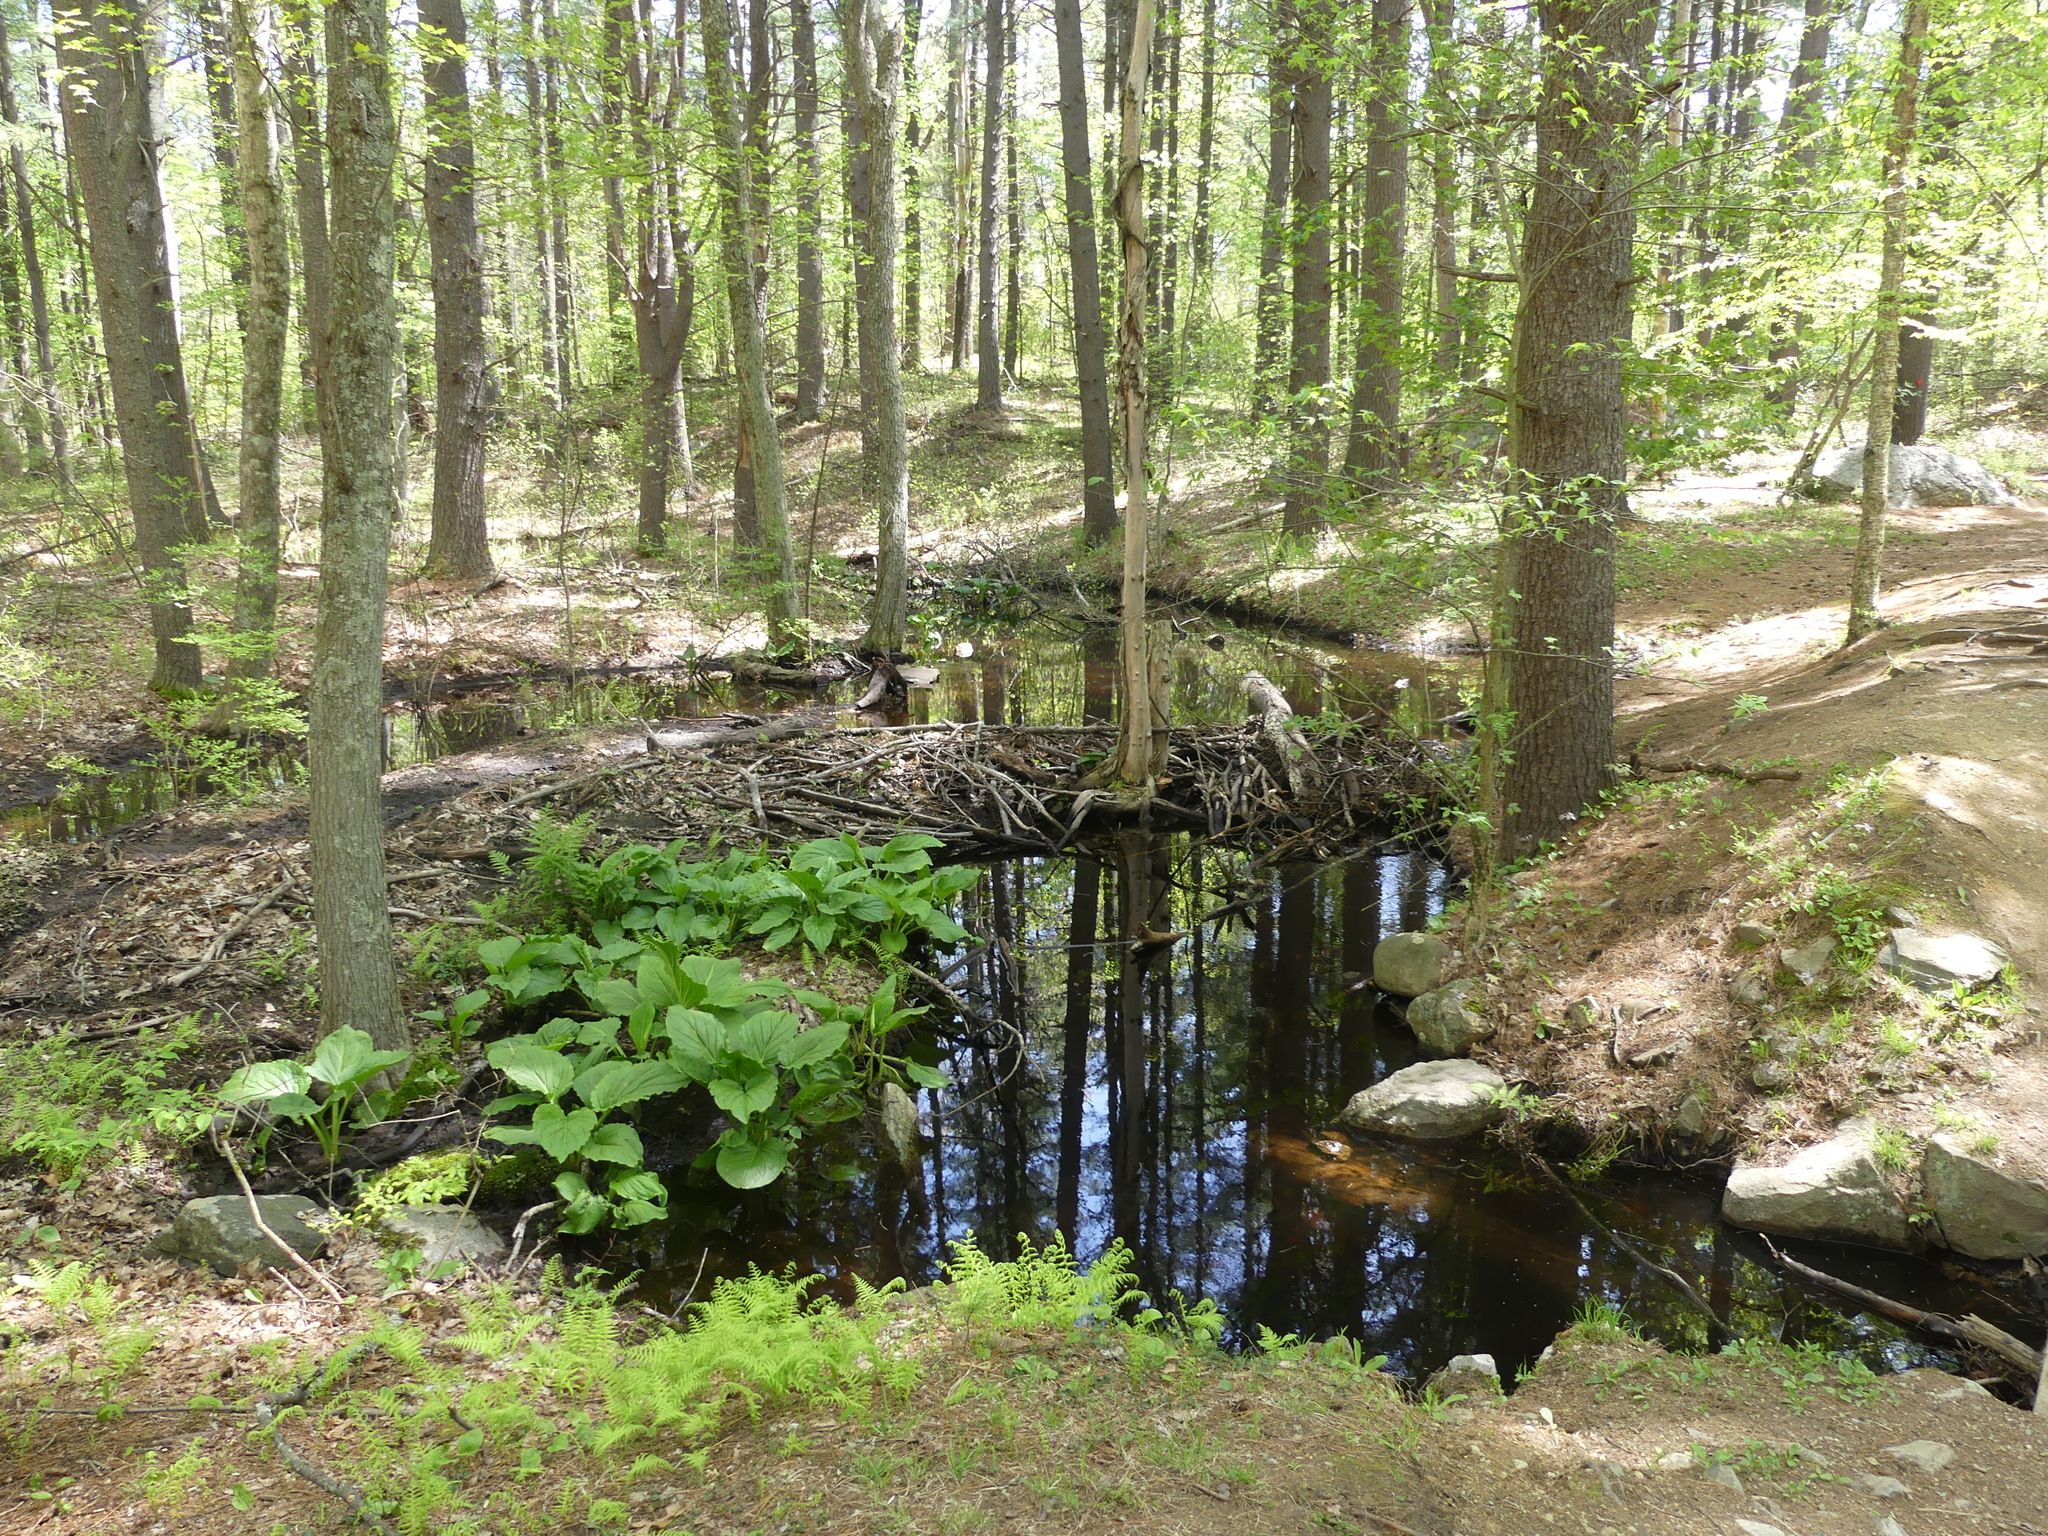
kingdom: Animalia
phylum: Chordata
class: Mammalia
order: Rodentia
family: Castoridae
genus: Castor
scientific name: Castor canadensis
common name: American beaver
